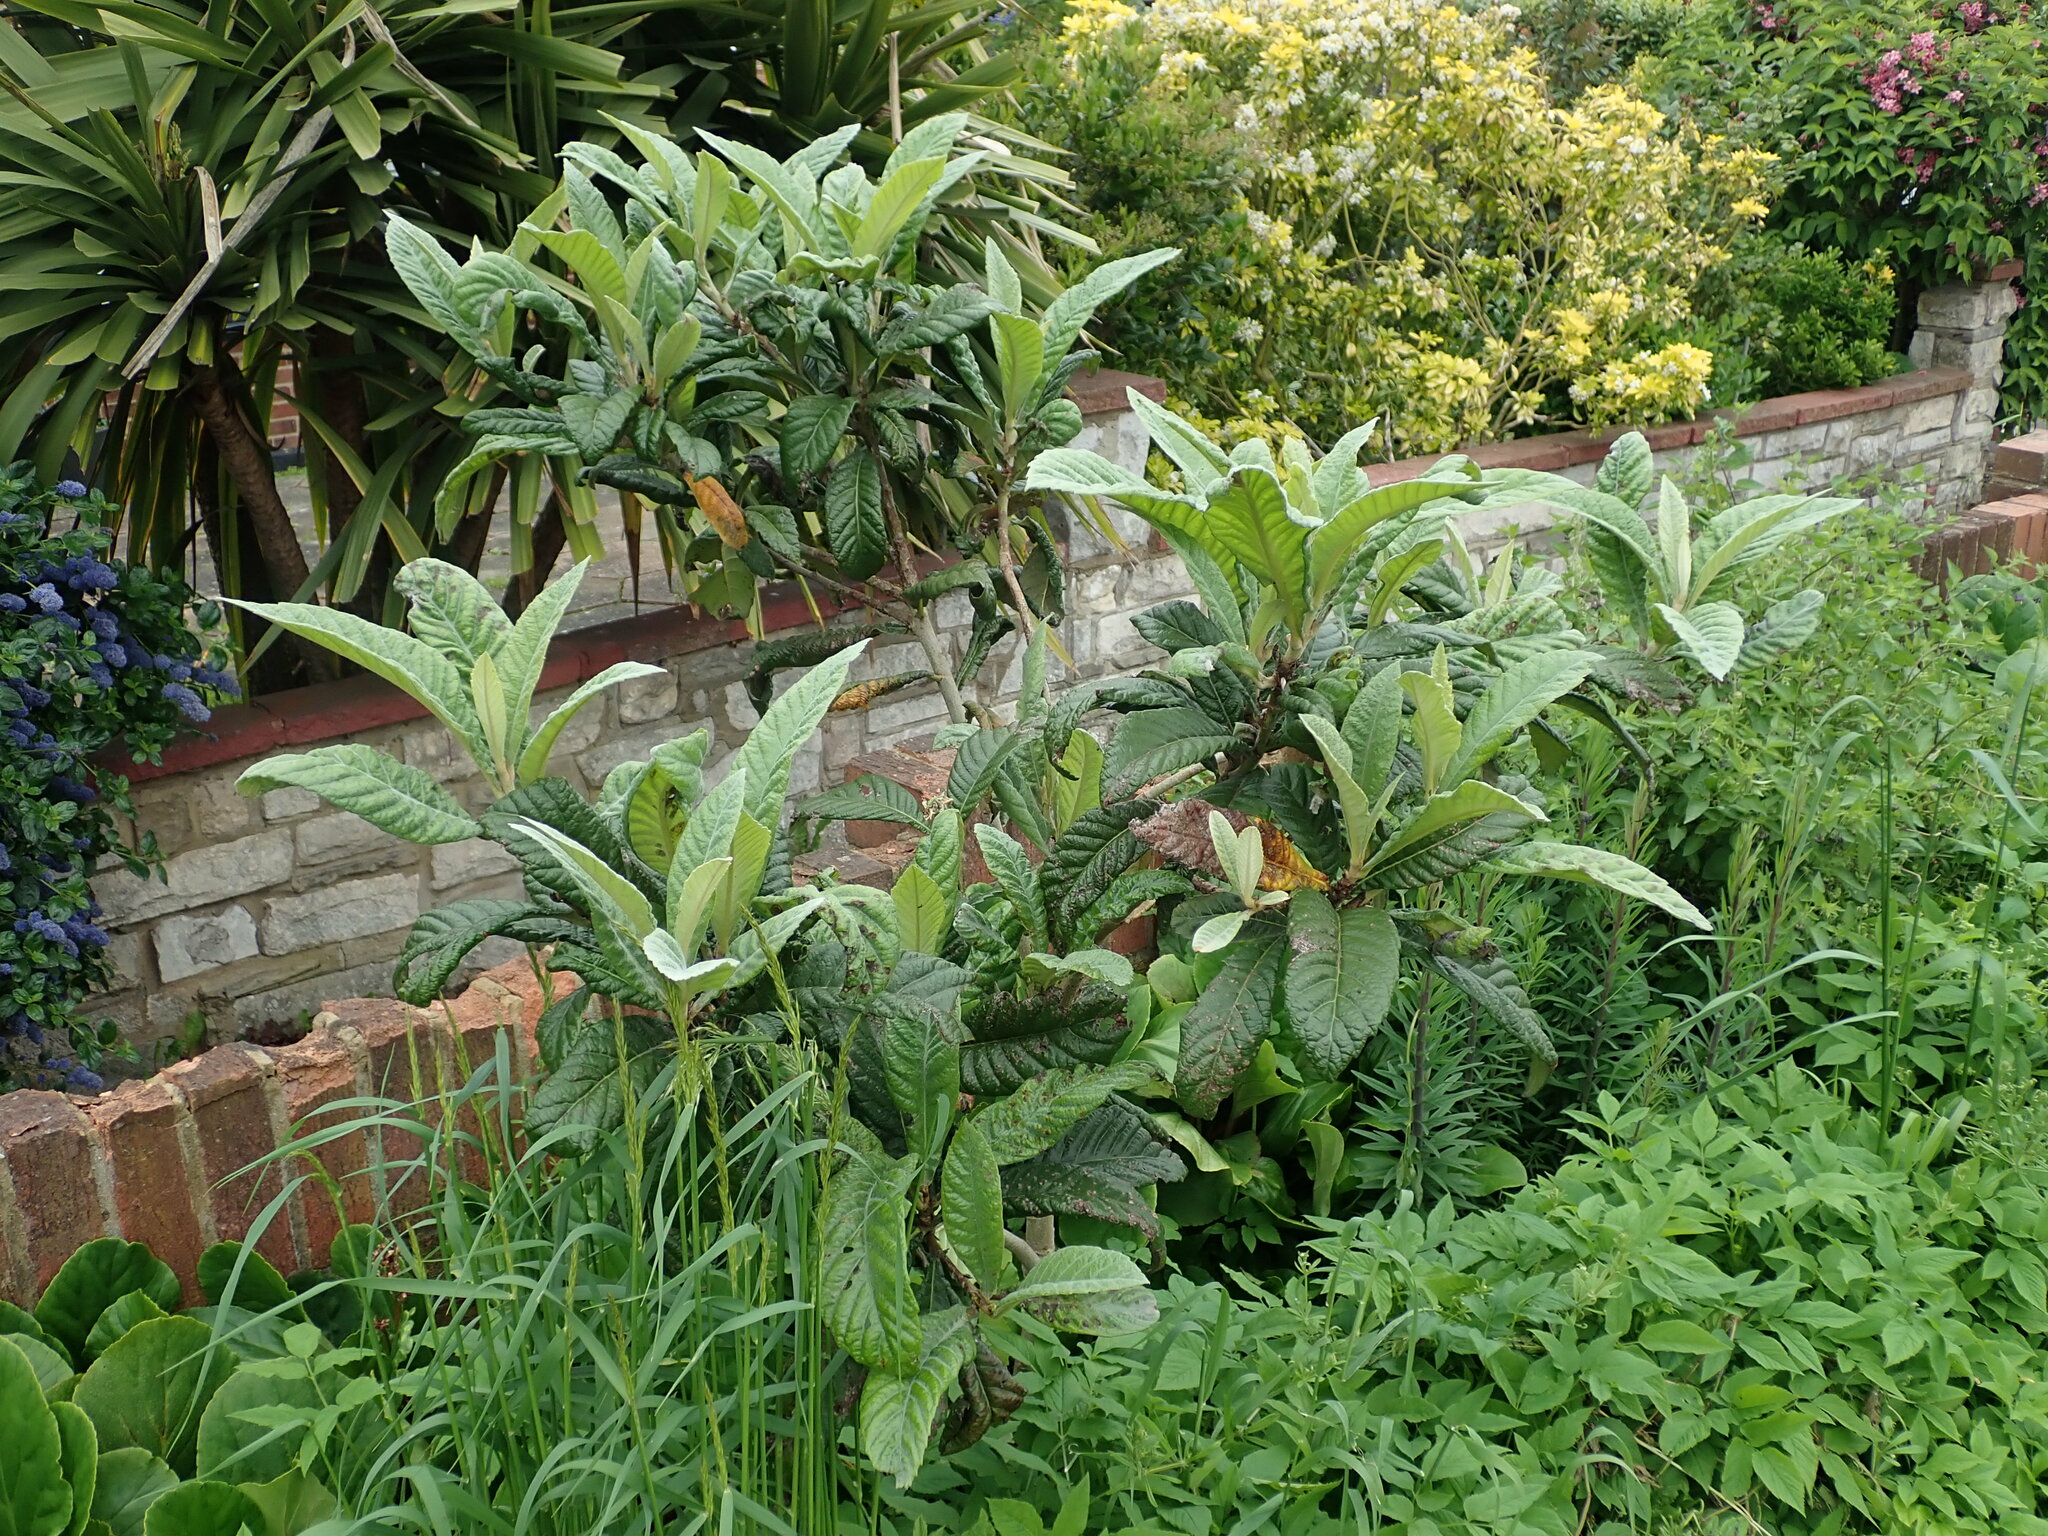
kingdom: Plantae
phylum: Tracheophyta
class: Magnoliopsida
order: Rosales
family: Rosaceae
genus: Rhaphiolepis
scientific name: Rhaphiolepis bibas
